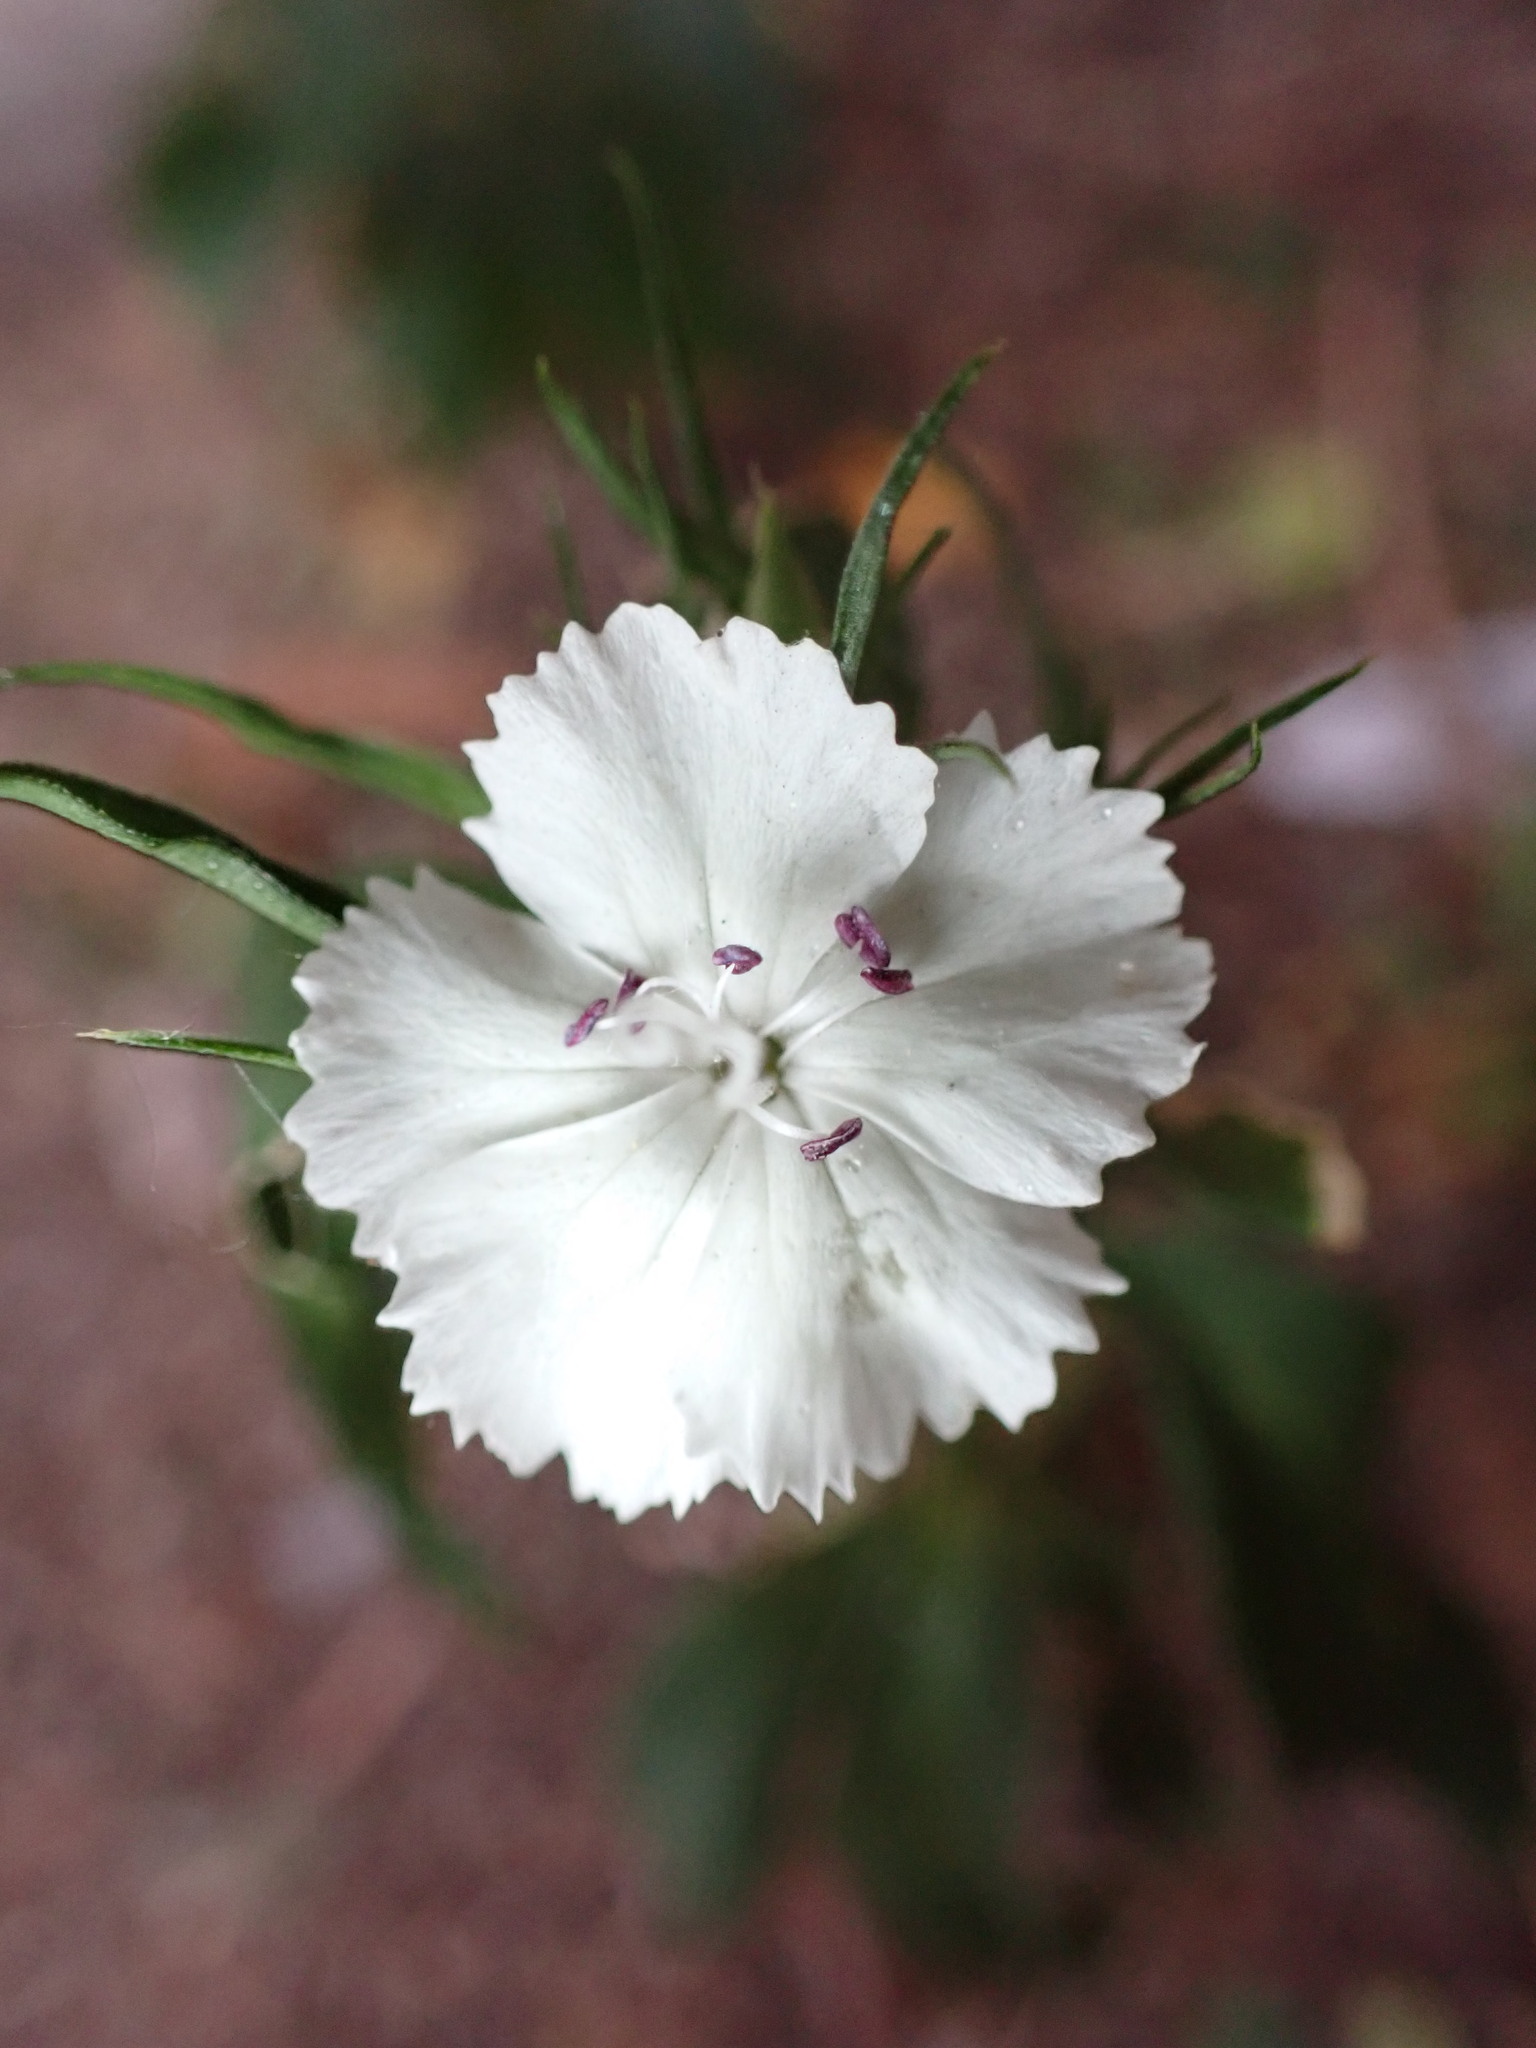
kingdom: Plantae
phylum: Tracheophyta
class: Magnoliopsida
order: Caryophyllales
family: Caryophyllaceae
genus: Dianthus
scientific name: Dianthus barbatus
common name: Sweet-william
